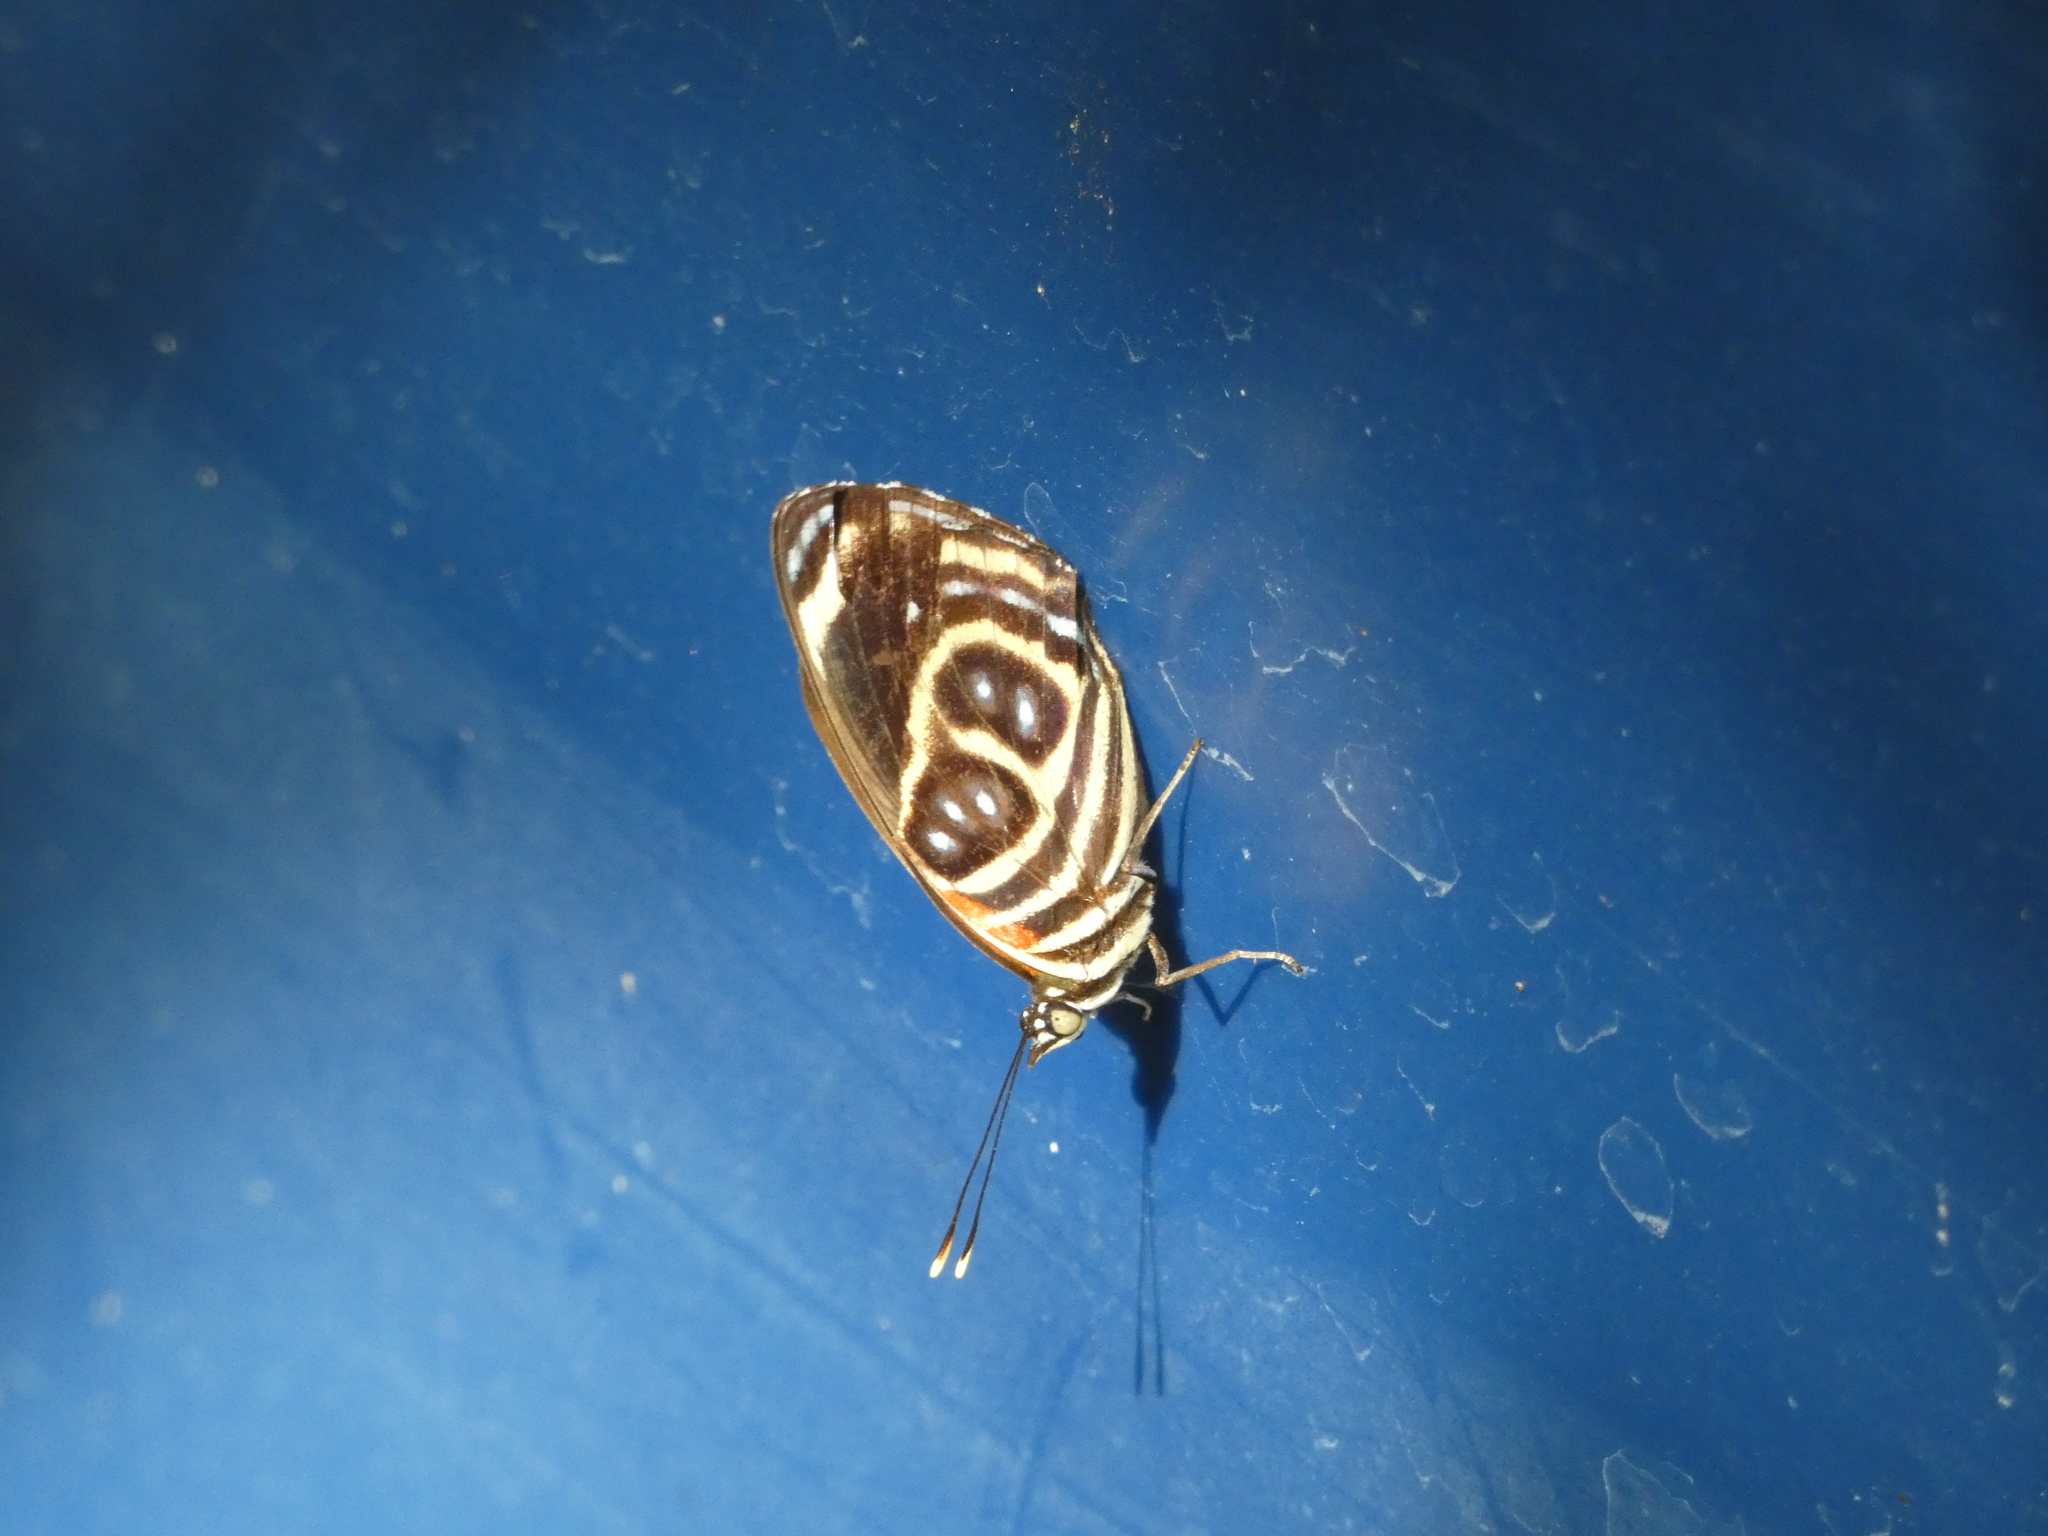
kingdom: Animalia
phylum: Arthropoda
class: Insecta
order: Lepidoptera
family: Nymphalidae
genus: Catagramma
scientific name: Catagramma pygas
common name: Godart's numberwing
